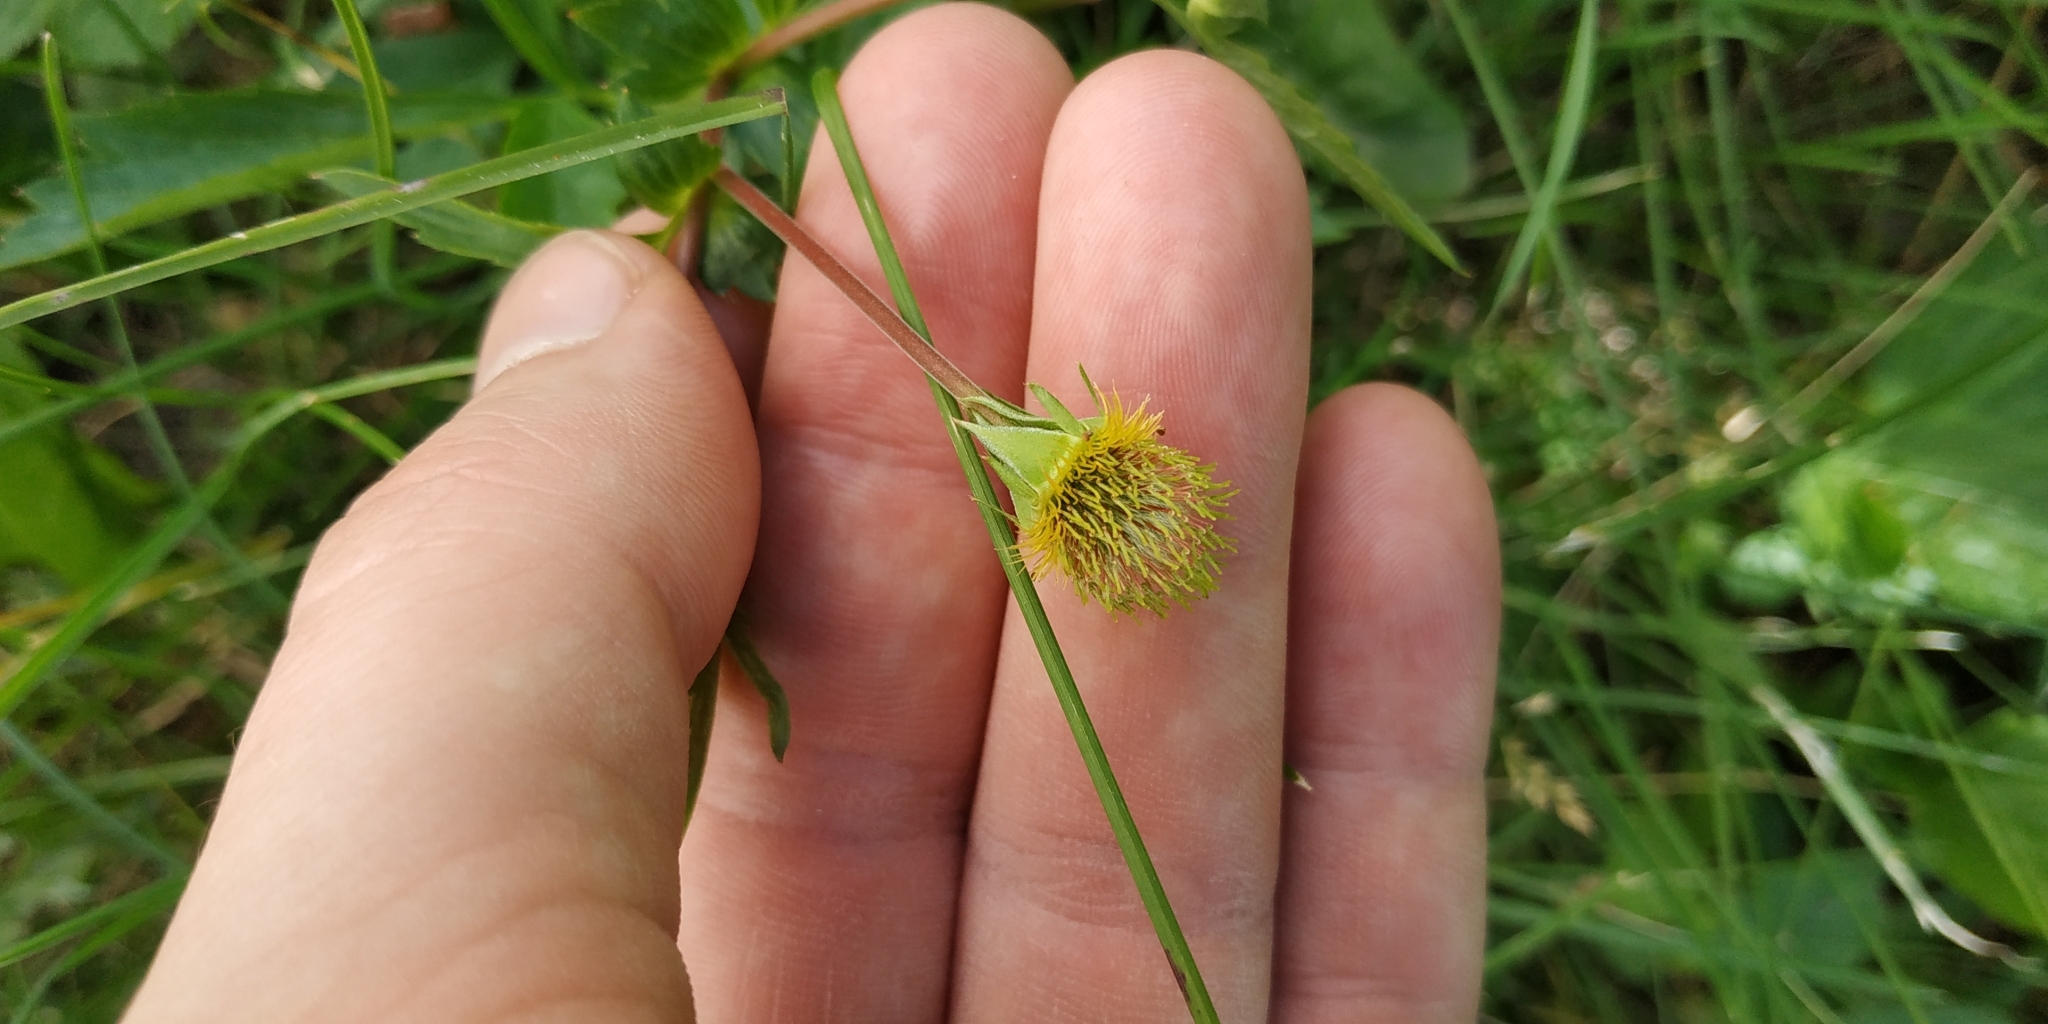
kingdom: Plantae
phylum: Tracheophyta
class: Magnoliopsida
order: Rosales
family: Rosaceae
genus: Geum
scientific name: Geum aleppicum
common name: Yellow avens
